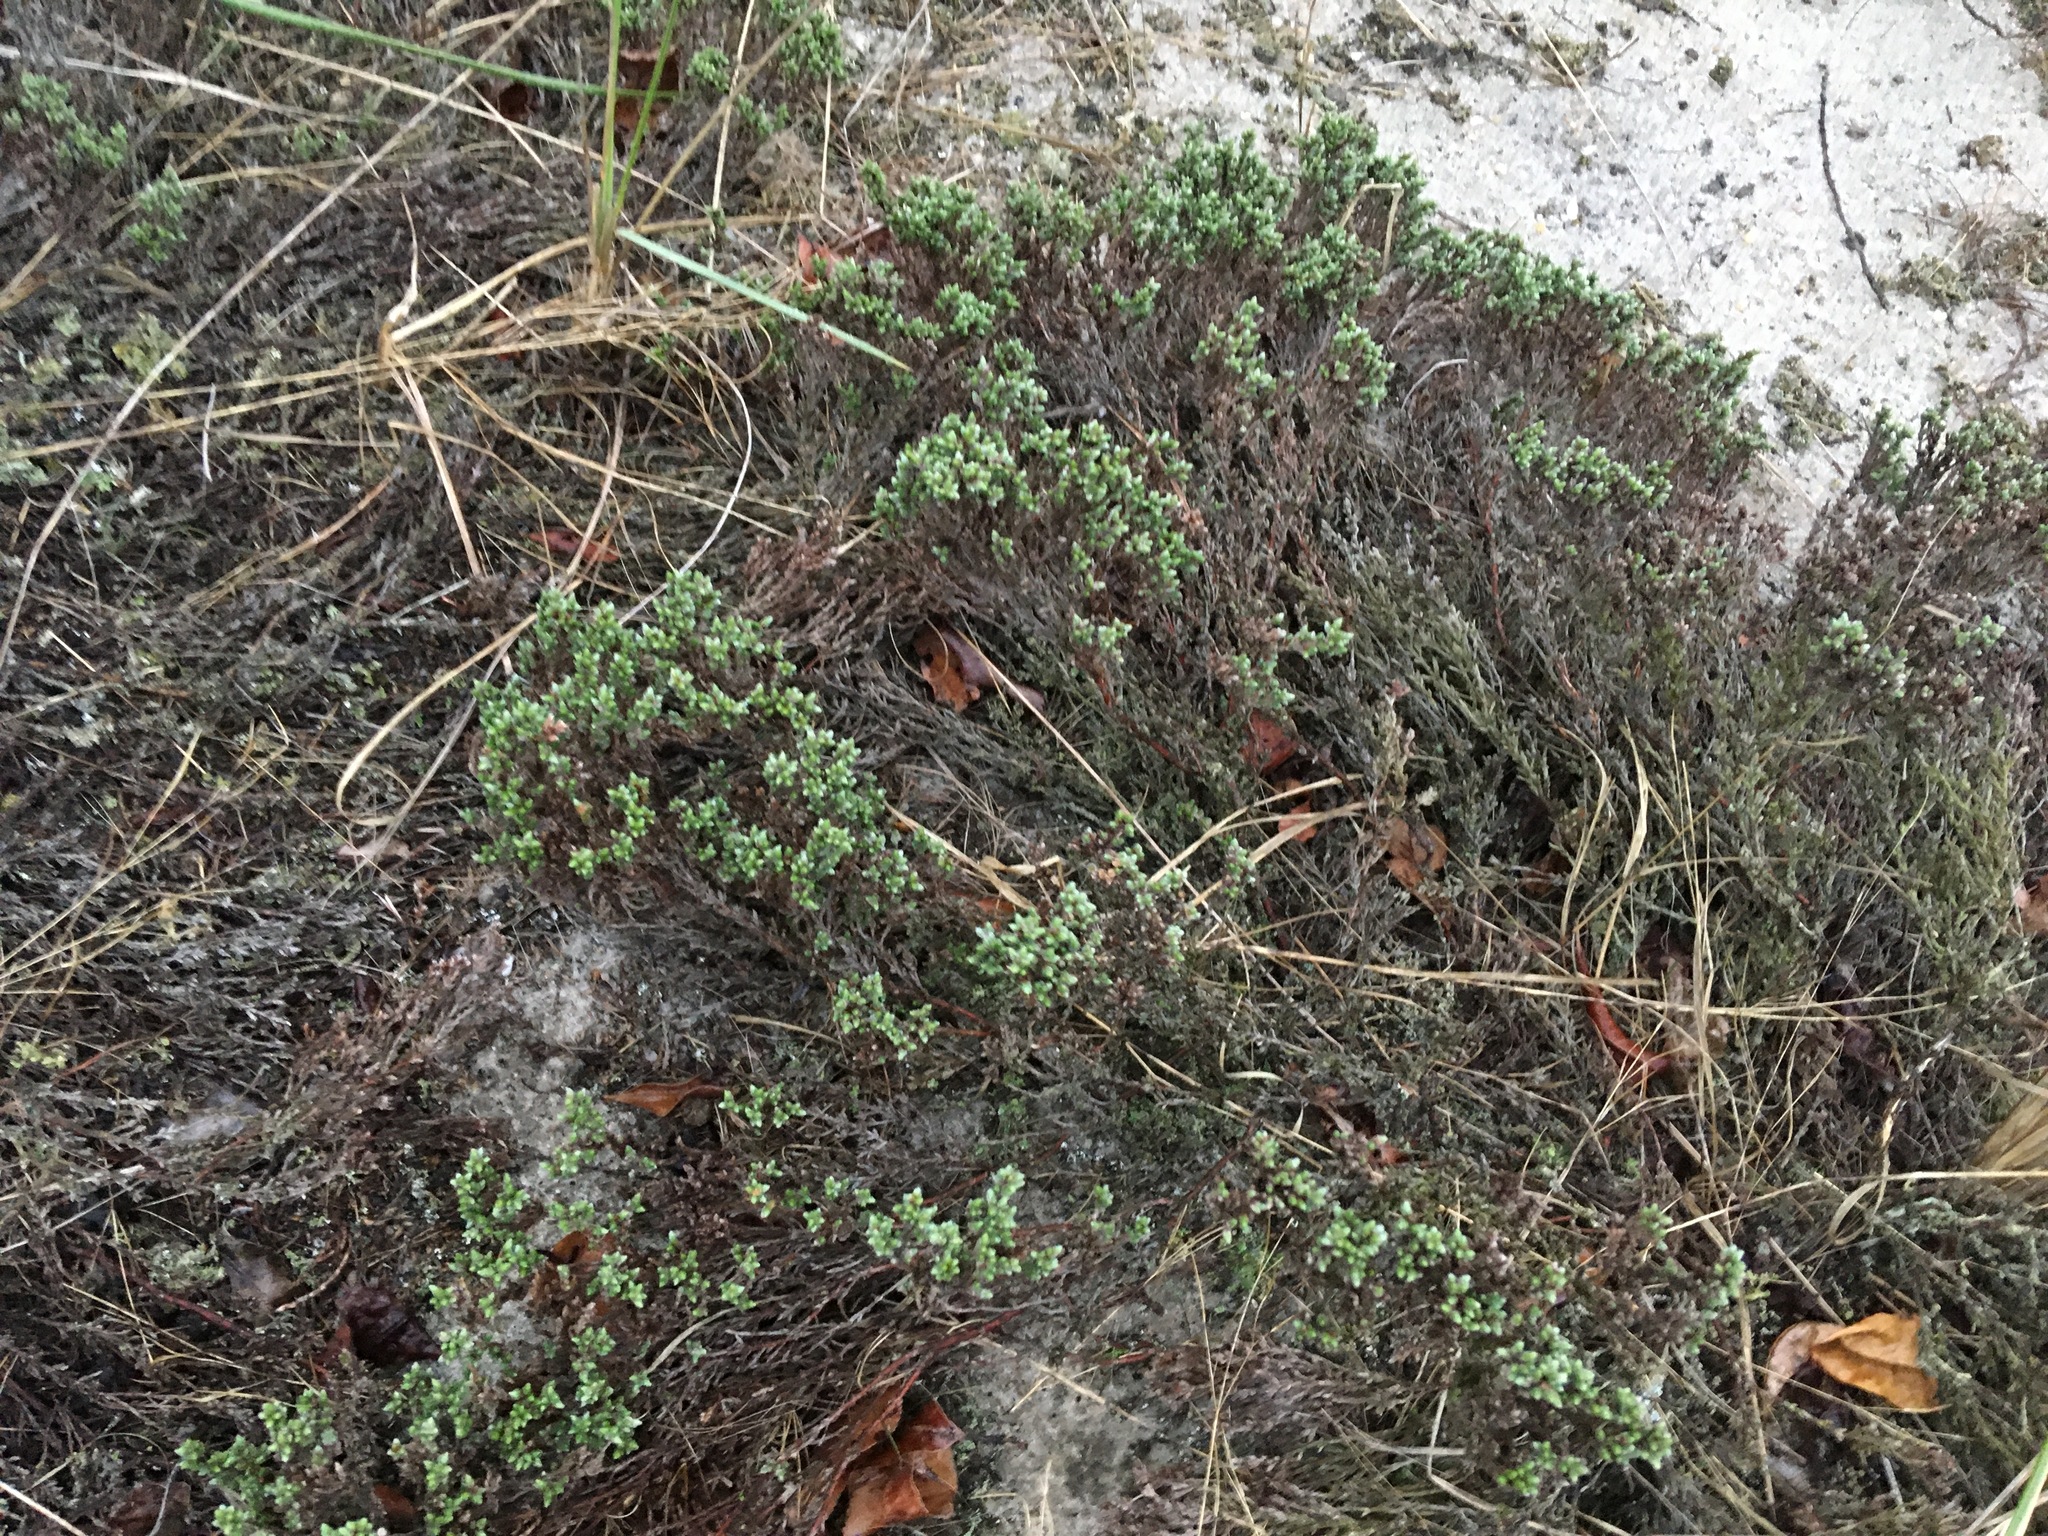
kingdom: Plantae
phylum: Tracheophyta
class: Magnoliopsida
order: Malvales
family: Cistaceae
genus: Hudsonia
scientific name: Hudsonia tomentosa
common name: Beach-heath
